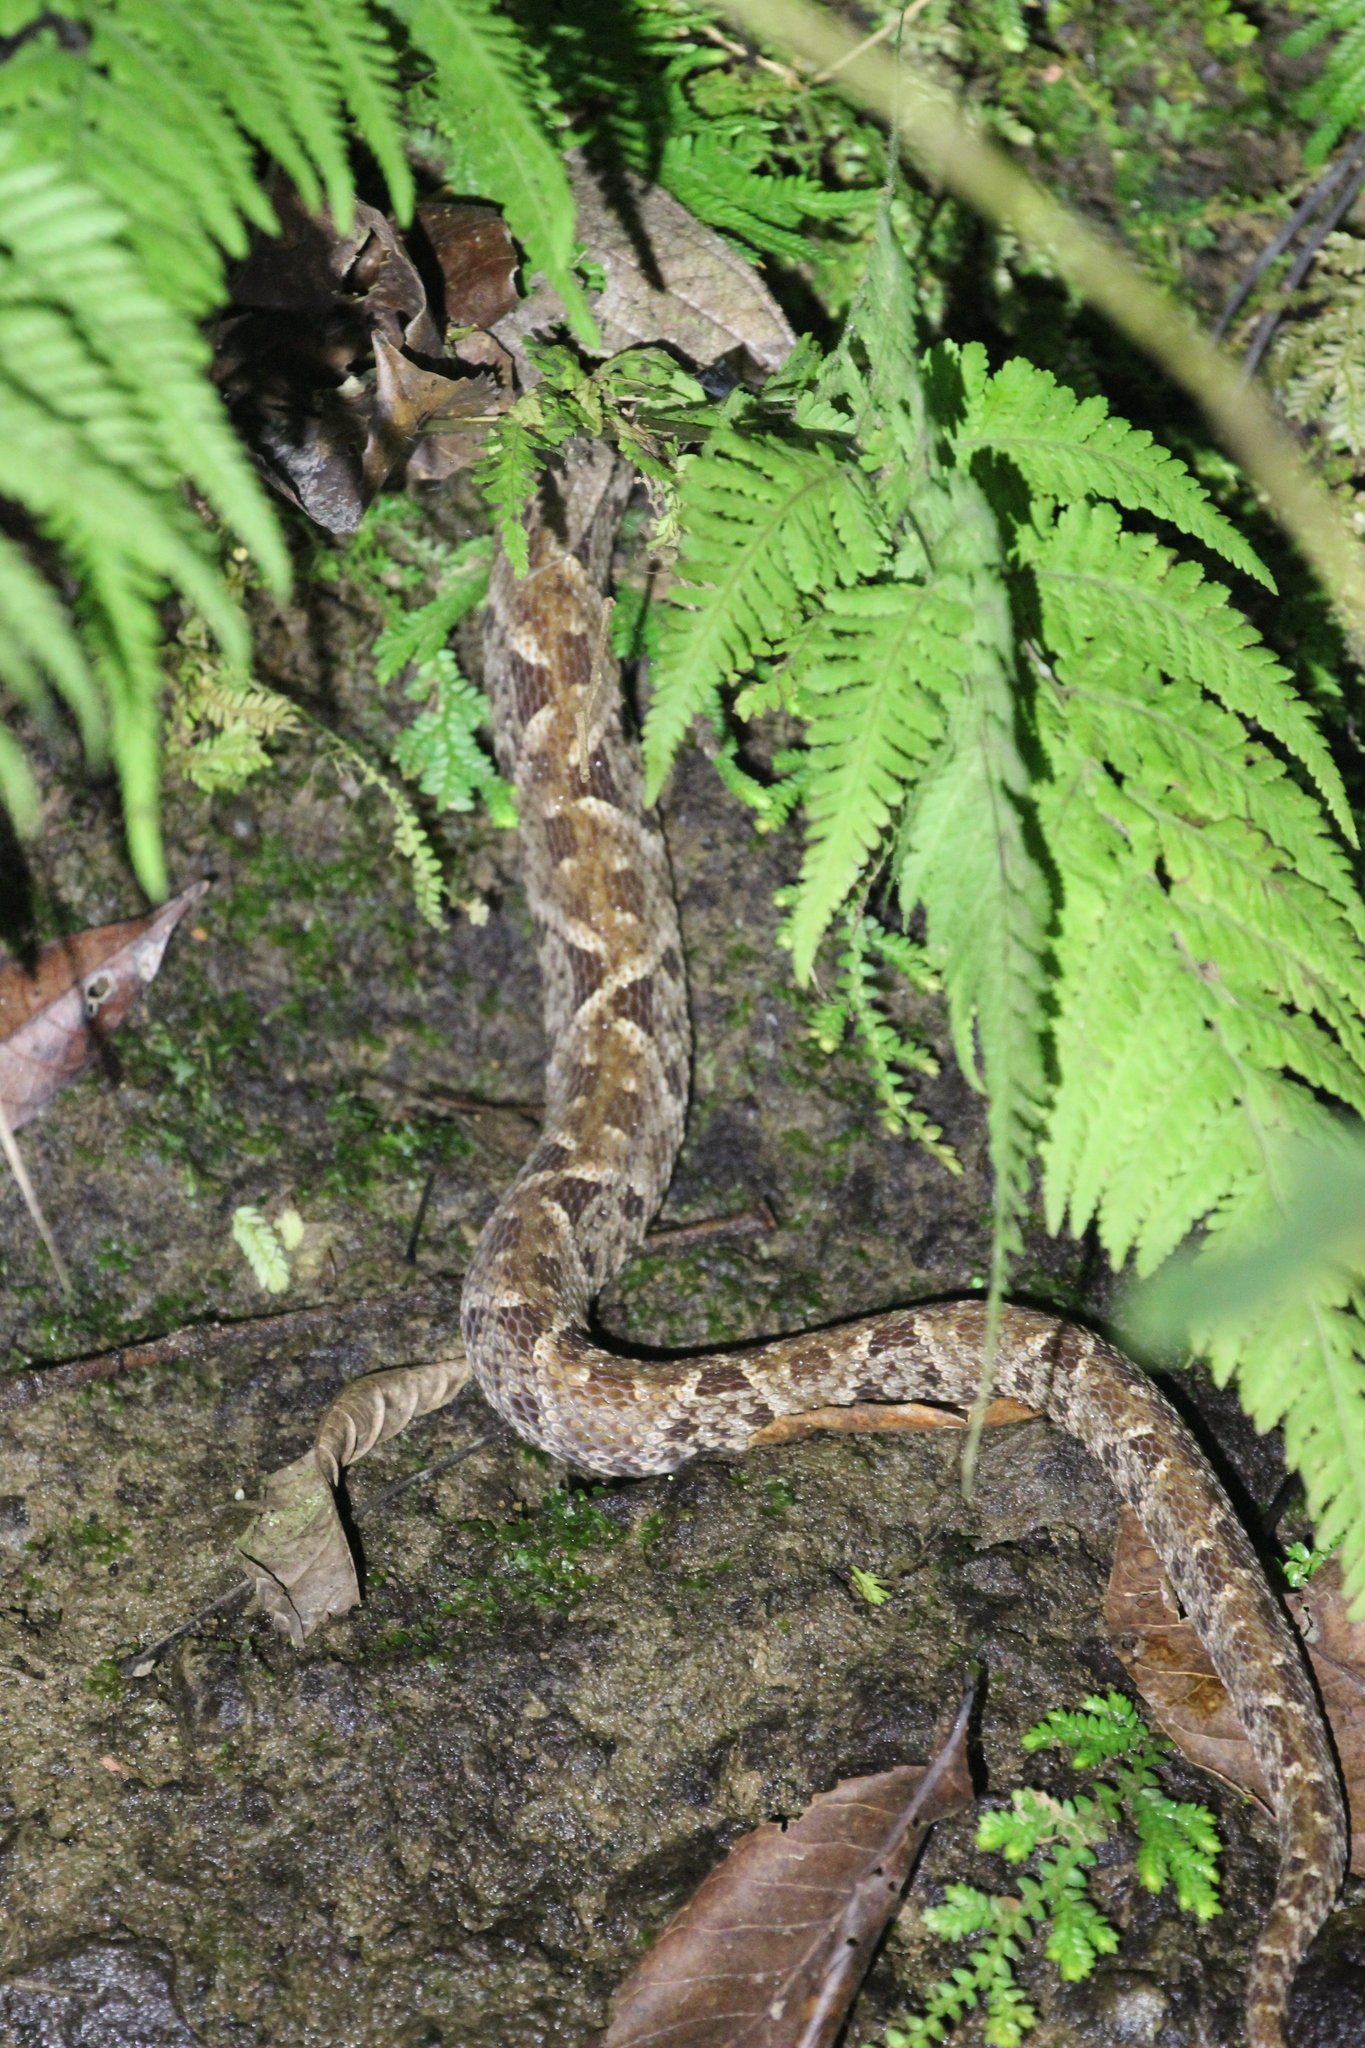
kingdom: Animalia
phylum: Chordata
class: Squamata
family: Viperidae
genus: Bothrops
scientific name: Bothrops asper
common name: Terciopelo
